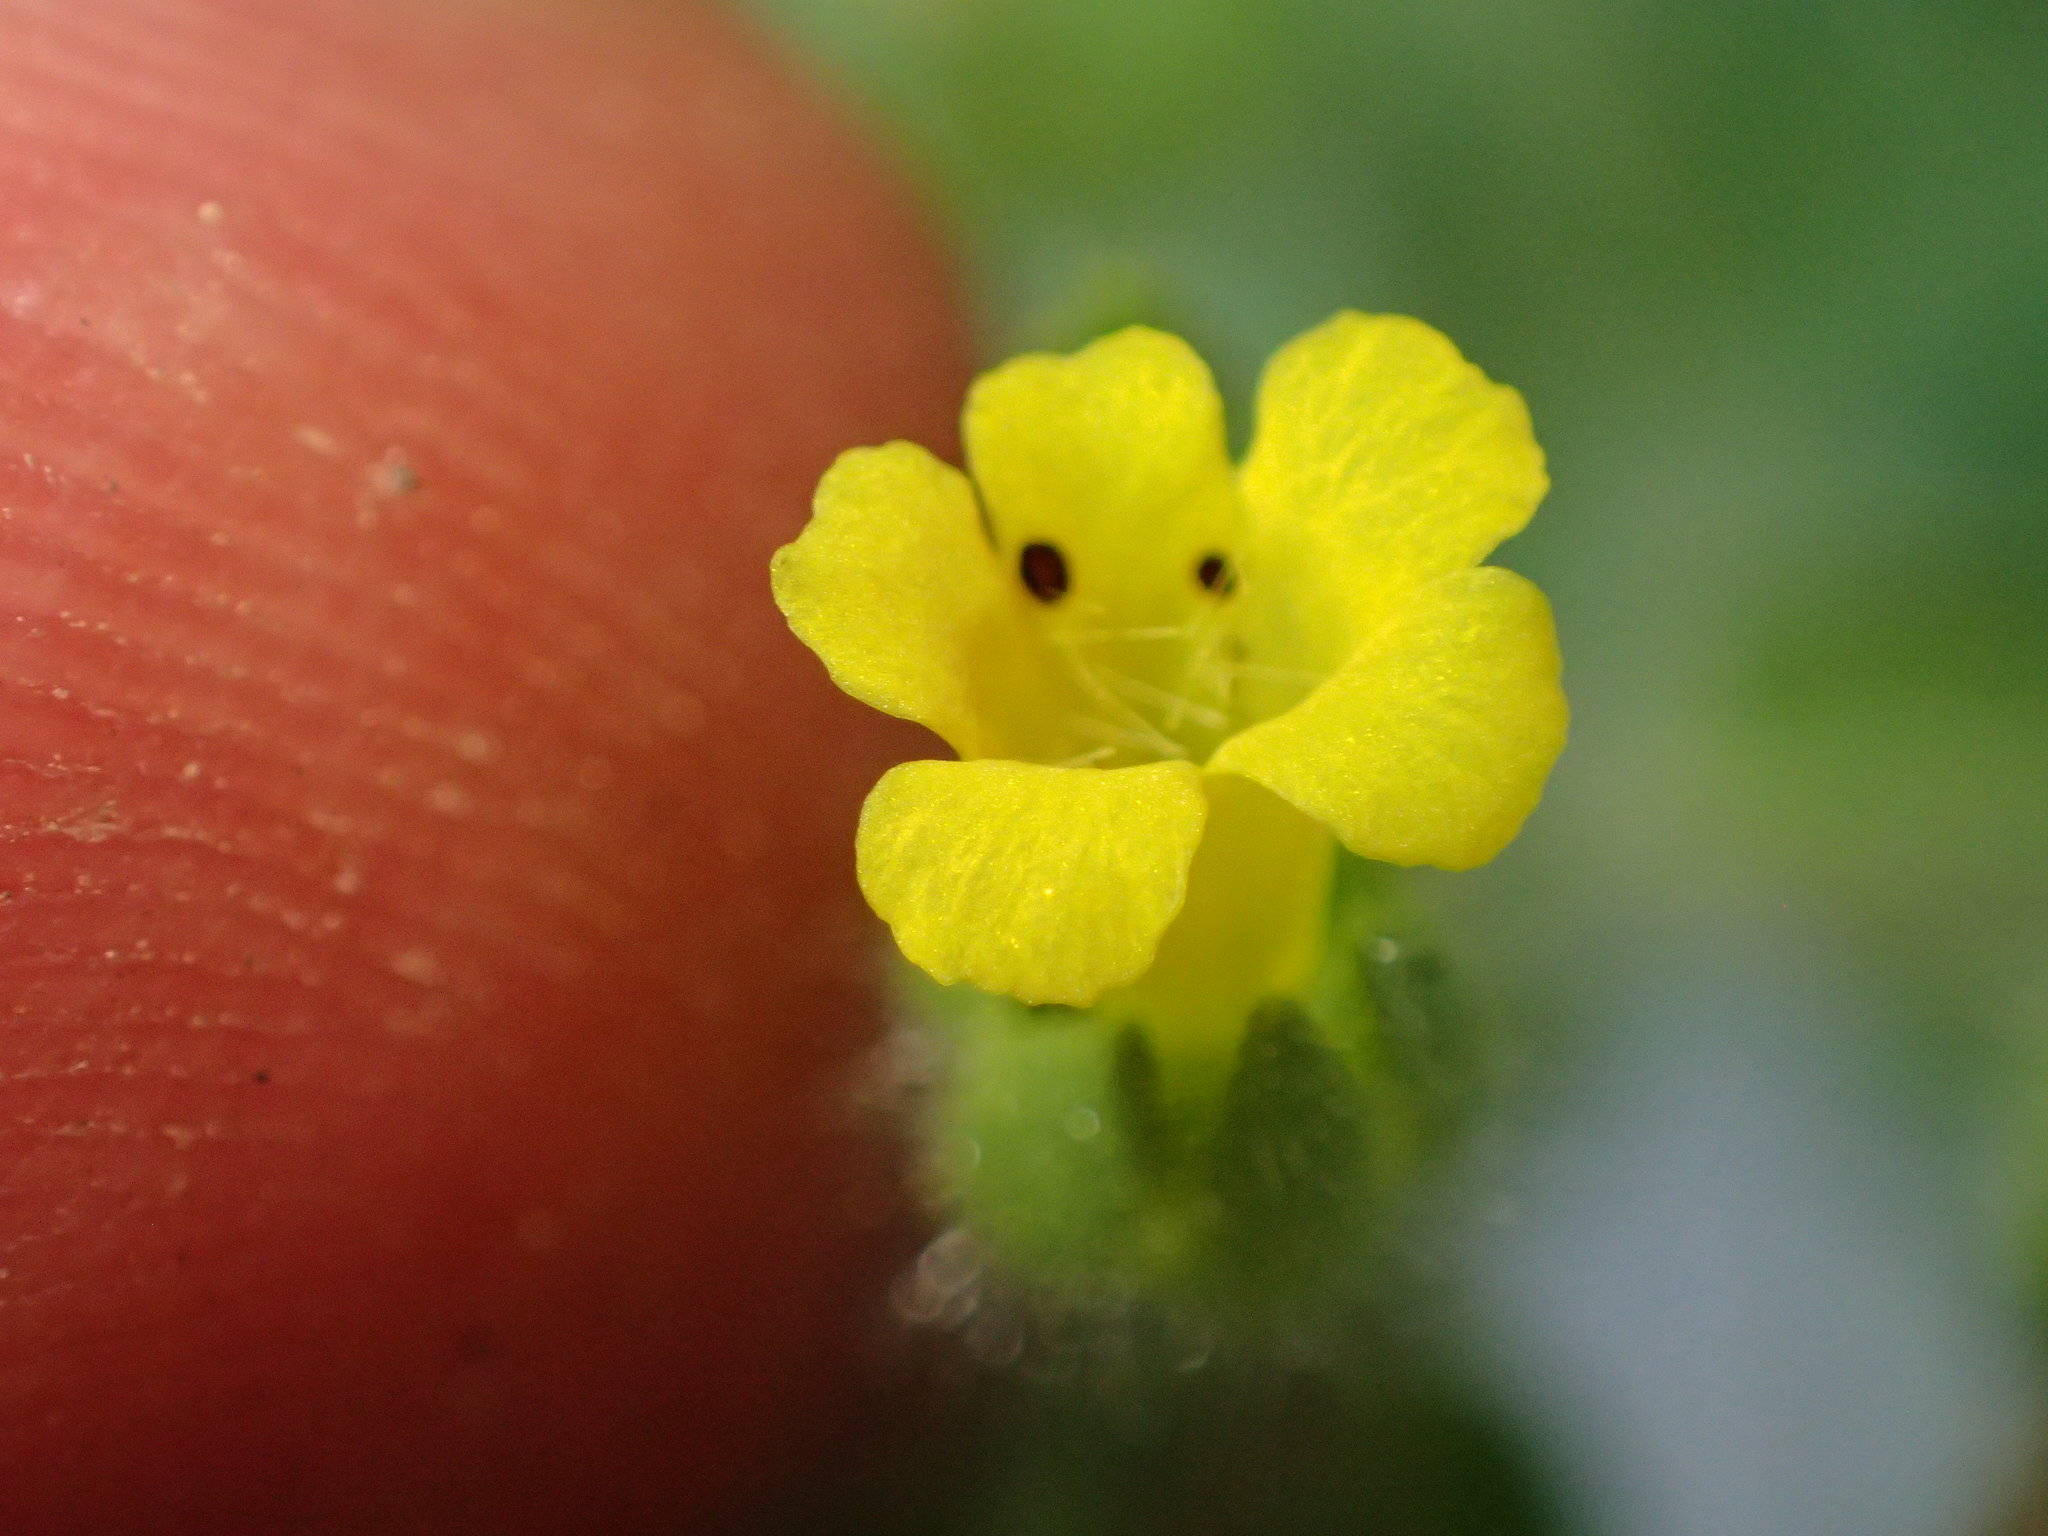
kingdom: Plantae
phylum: Tracheophyta
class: Magnoliopsida
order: Lamiales
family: Phrymaceae
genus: Mimetanthe
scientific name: Mimetanthe pilosa
